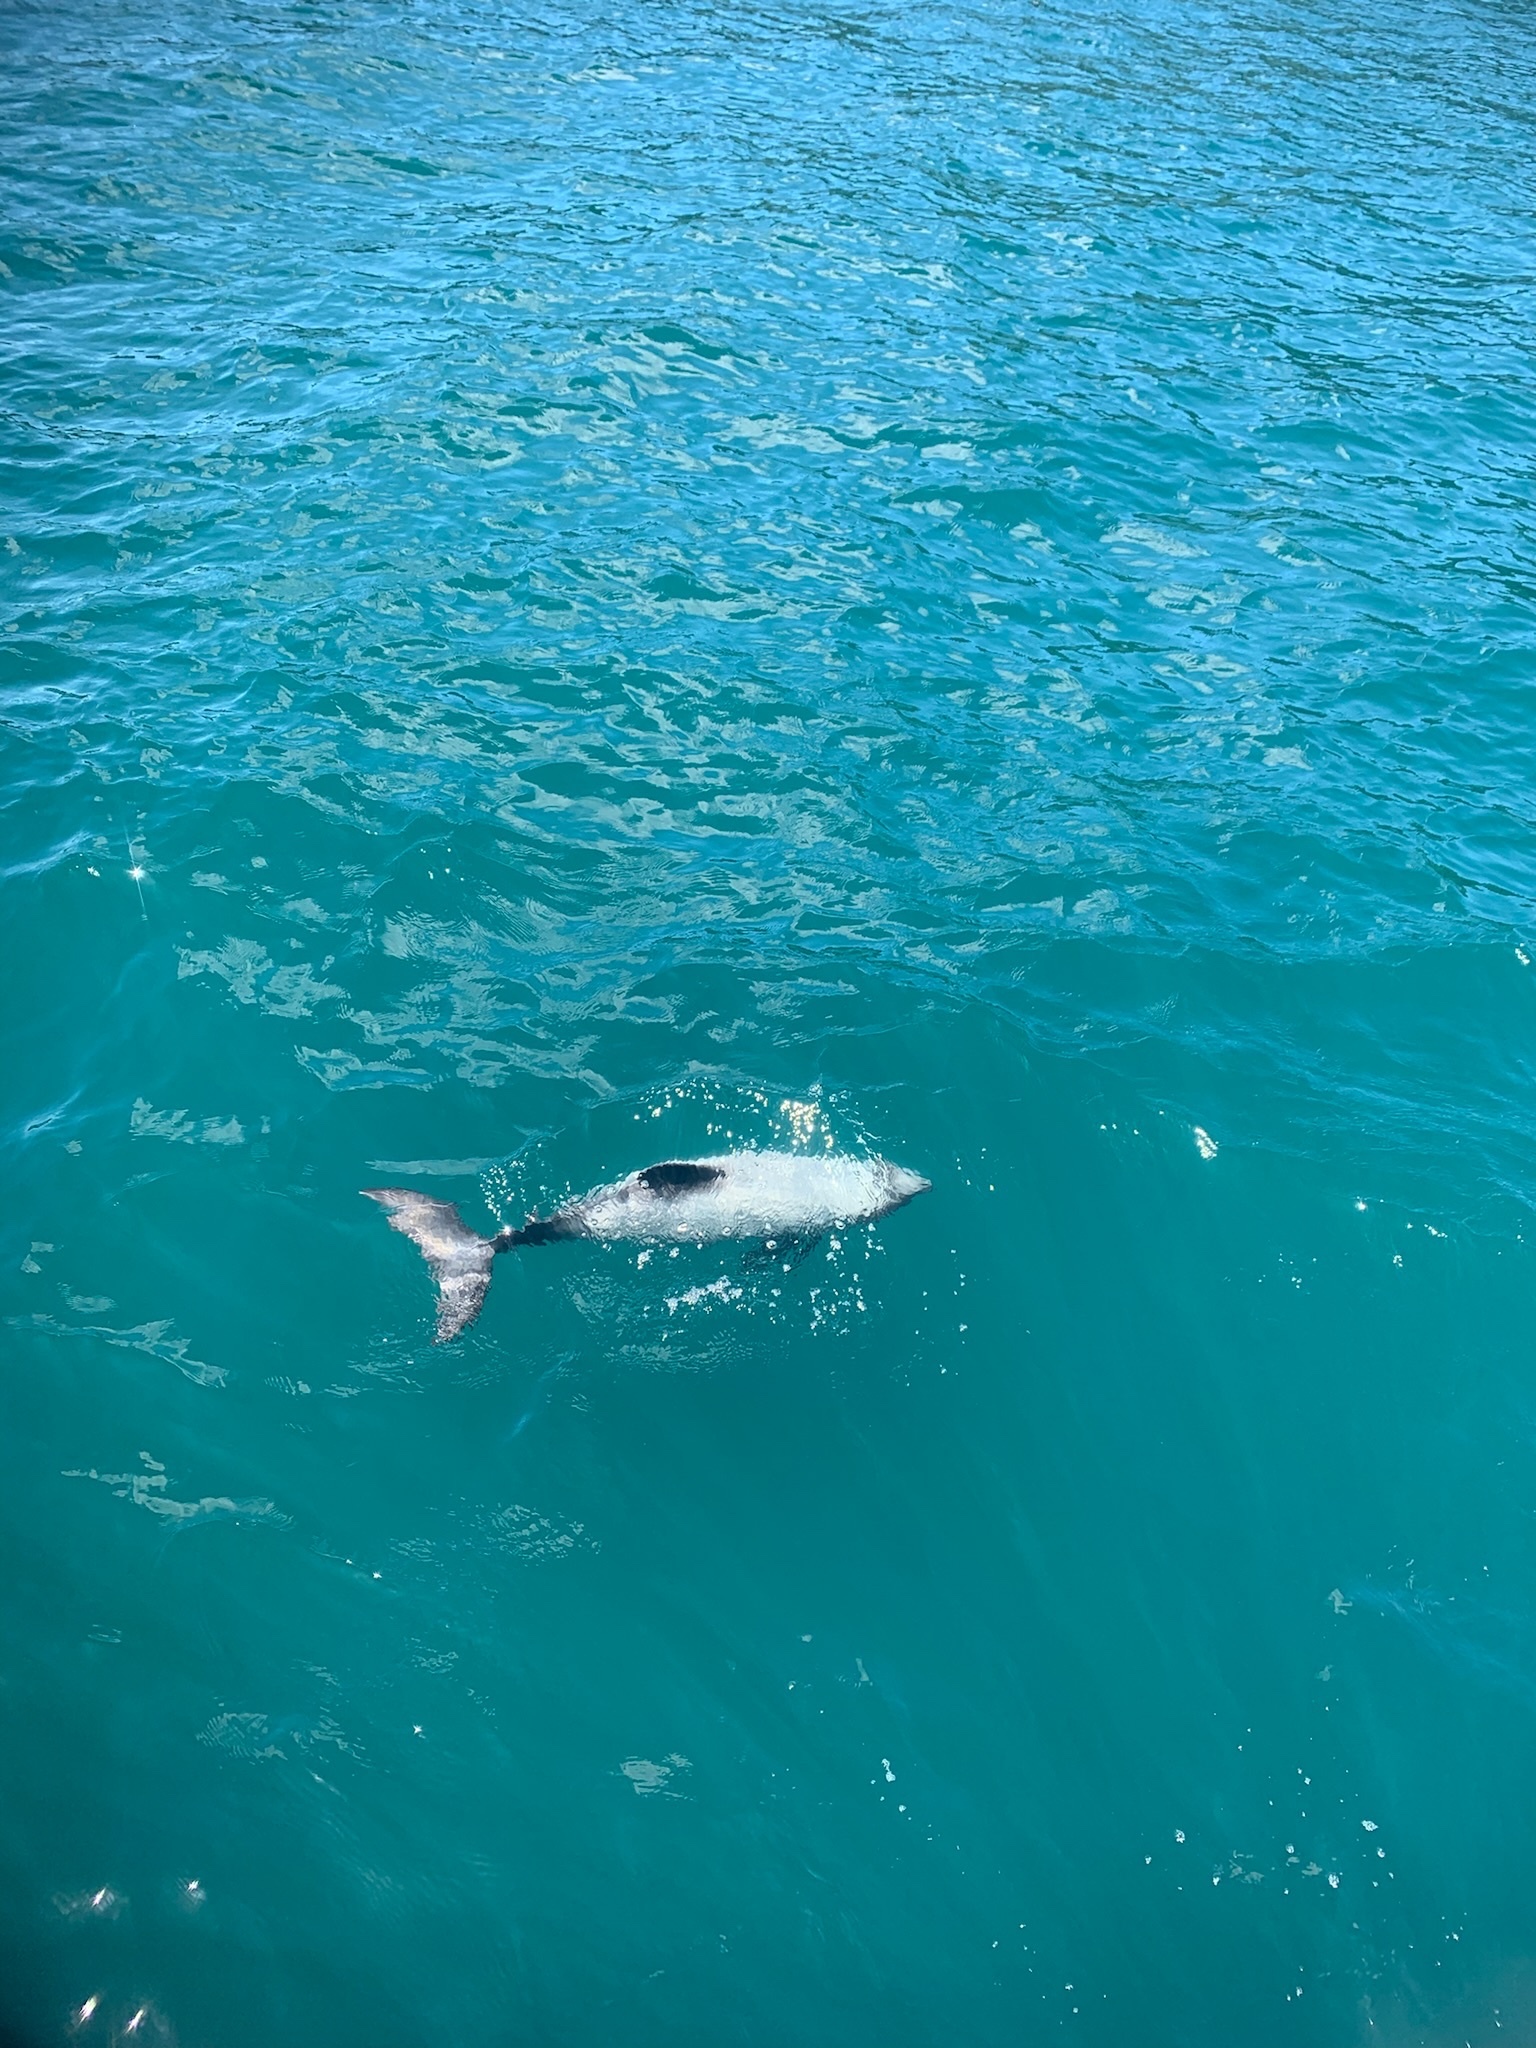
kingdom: Animalia
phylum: Chordata
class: Mammalia
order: Cetacea
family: Delphinidae
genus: Cephalorhynchus
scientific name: Cephalorhynchus hectori
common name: Hector's dolphin
